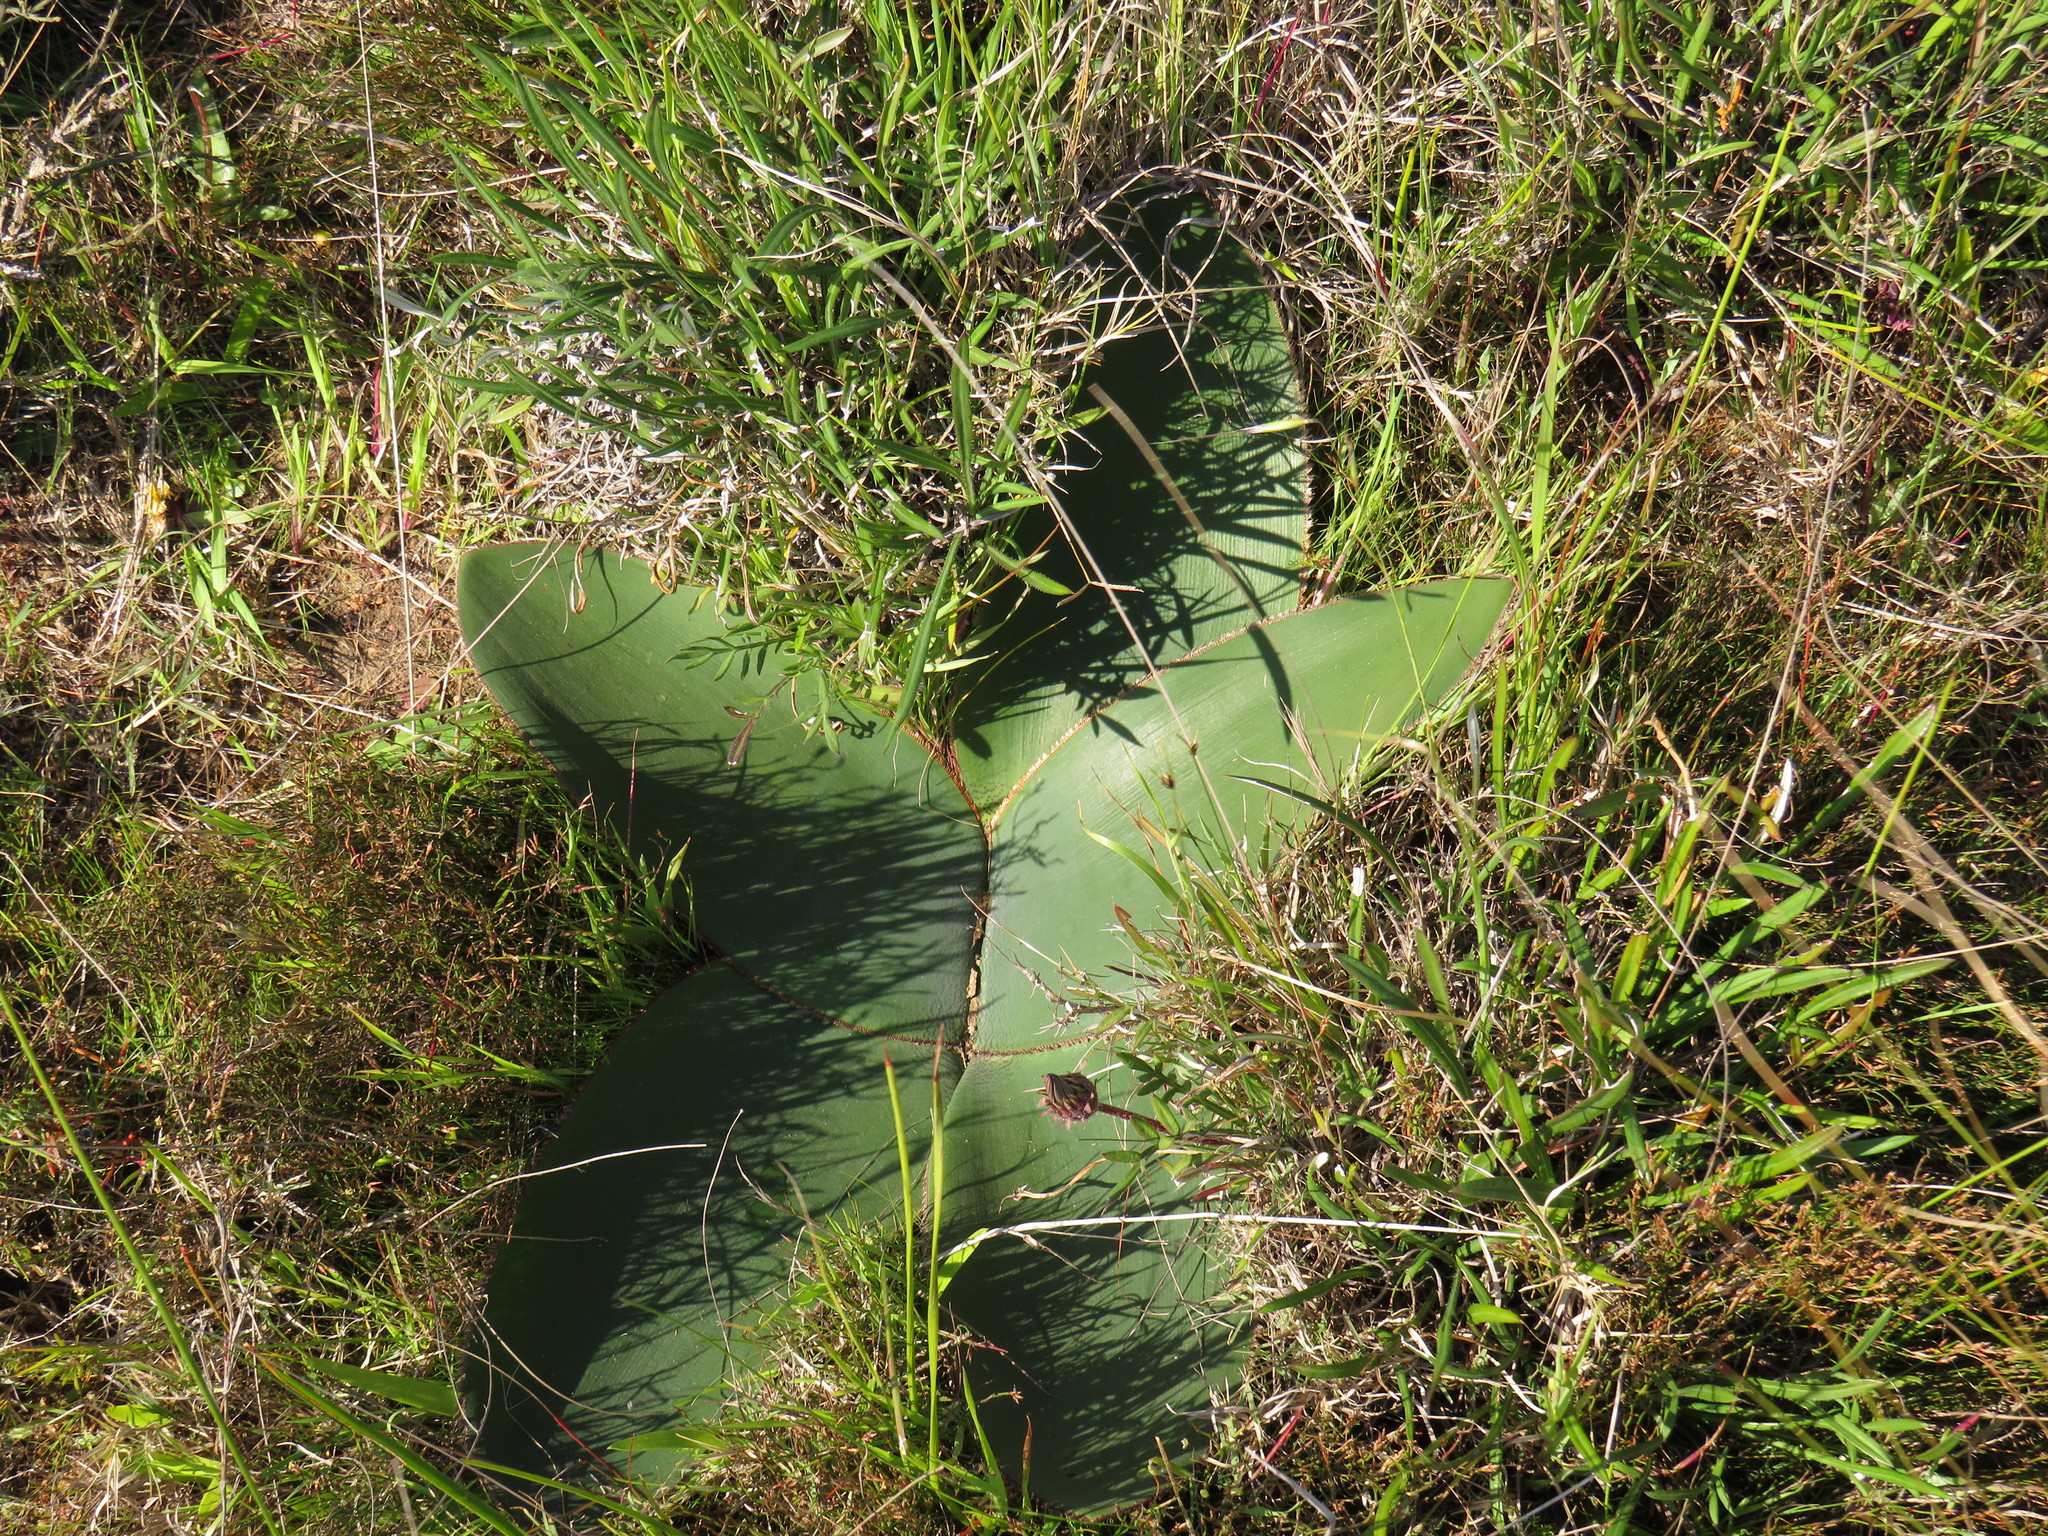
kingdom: Plantae
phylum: Tracheophyta
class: Liliopsida
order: Asparagales
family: Amaryllidaceae
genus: Crossyne
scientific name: Crossyne guttata
